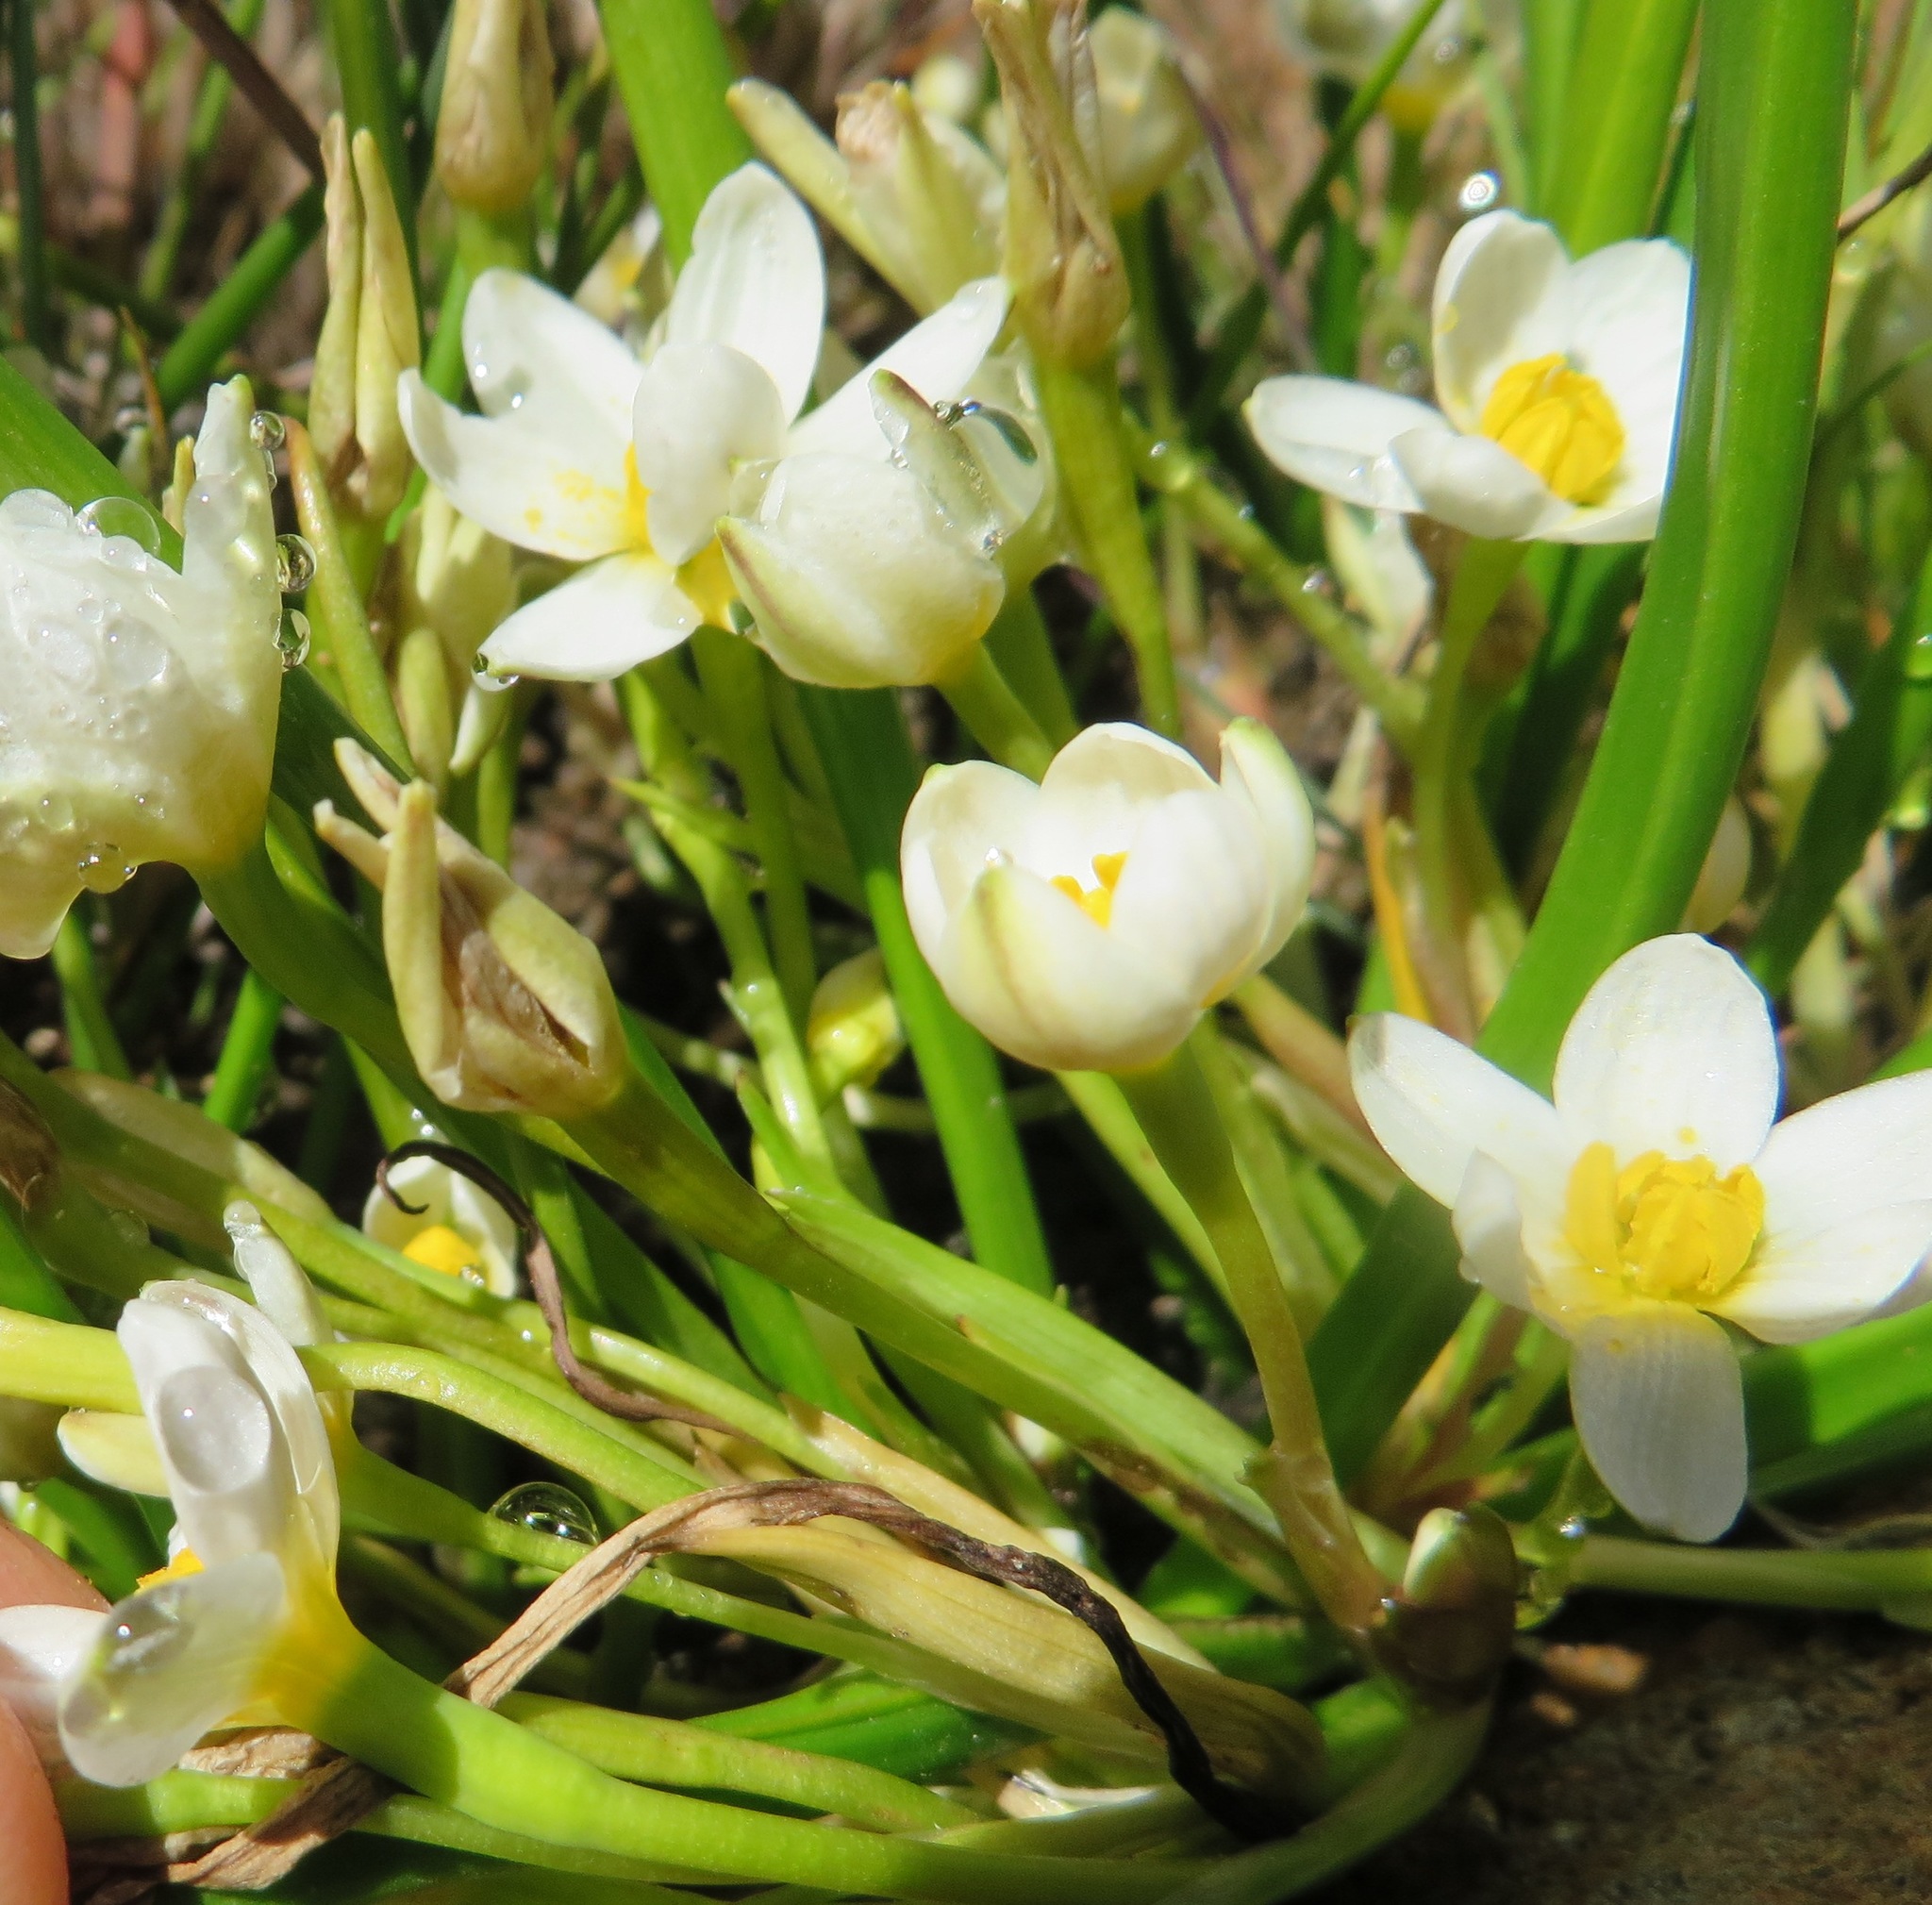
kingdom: Plantae
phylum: Tracheophyta
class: Liliopsida
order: Asparagales
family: Hypoxidaceae
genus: Pauridia
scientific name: Pauridia aquatica
